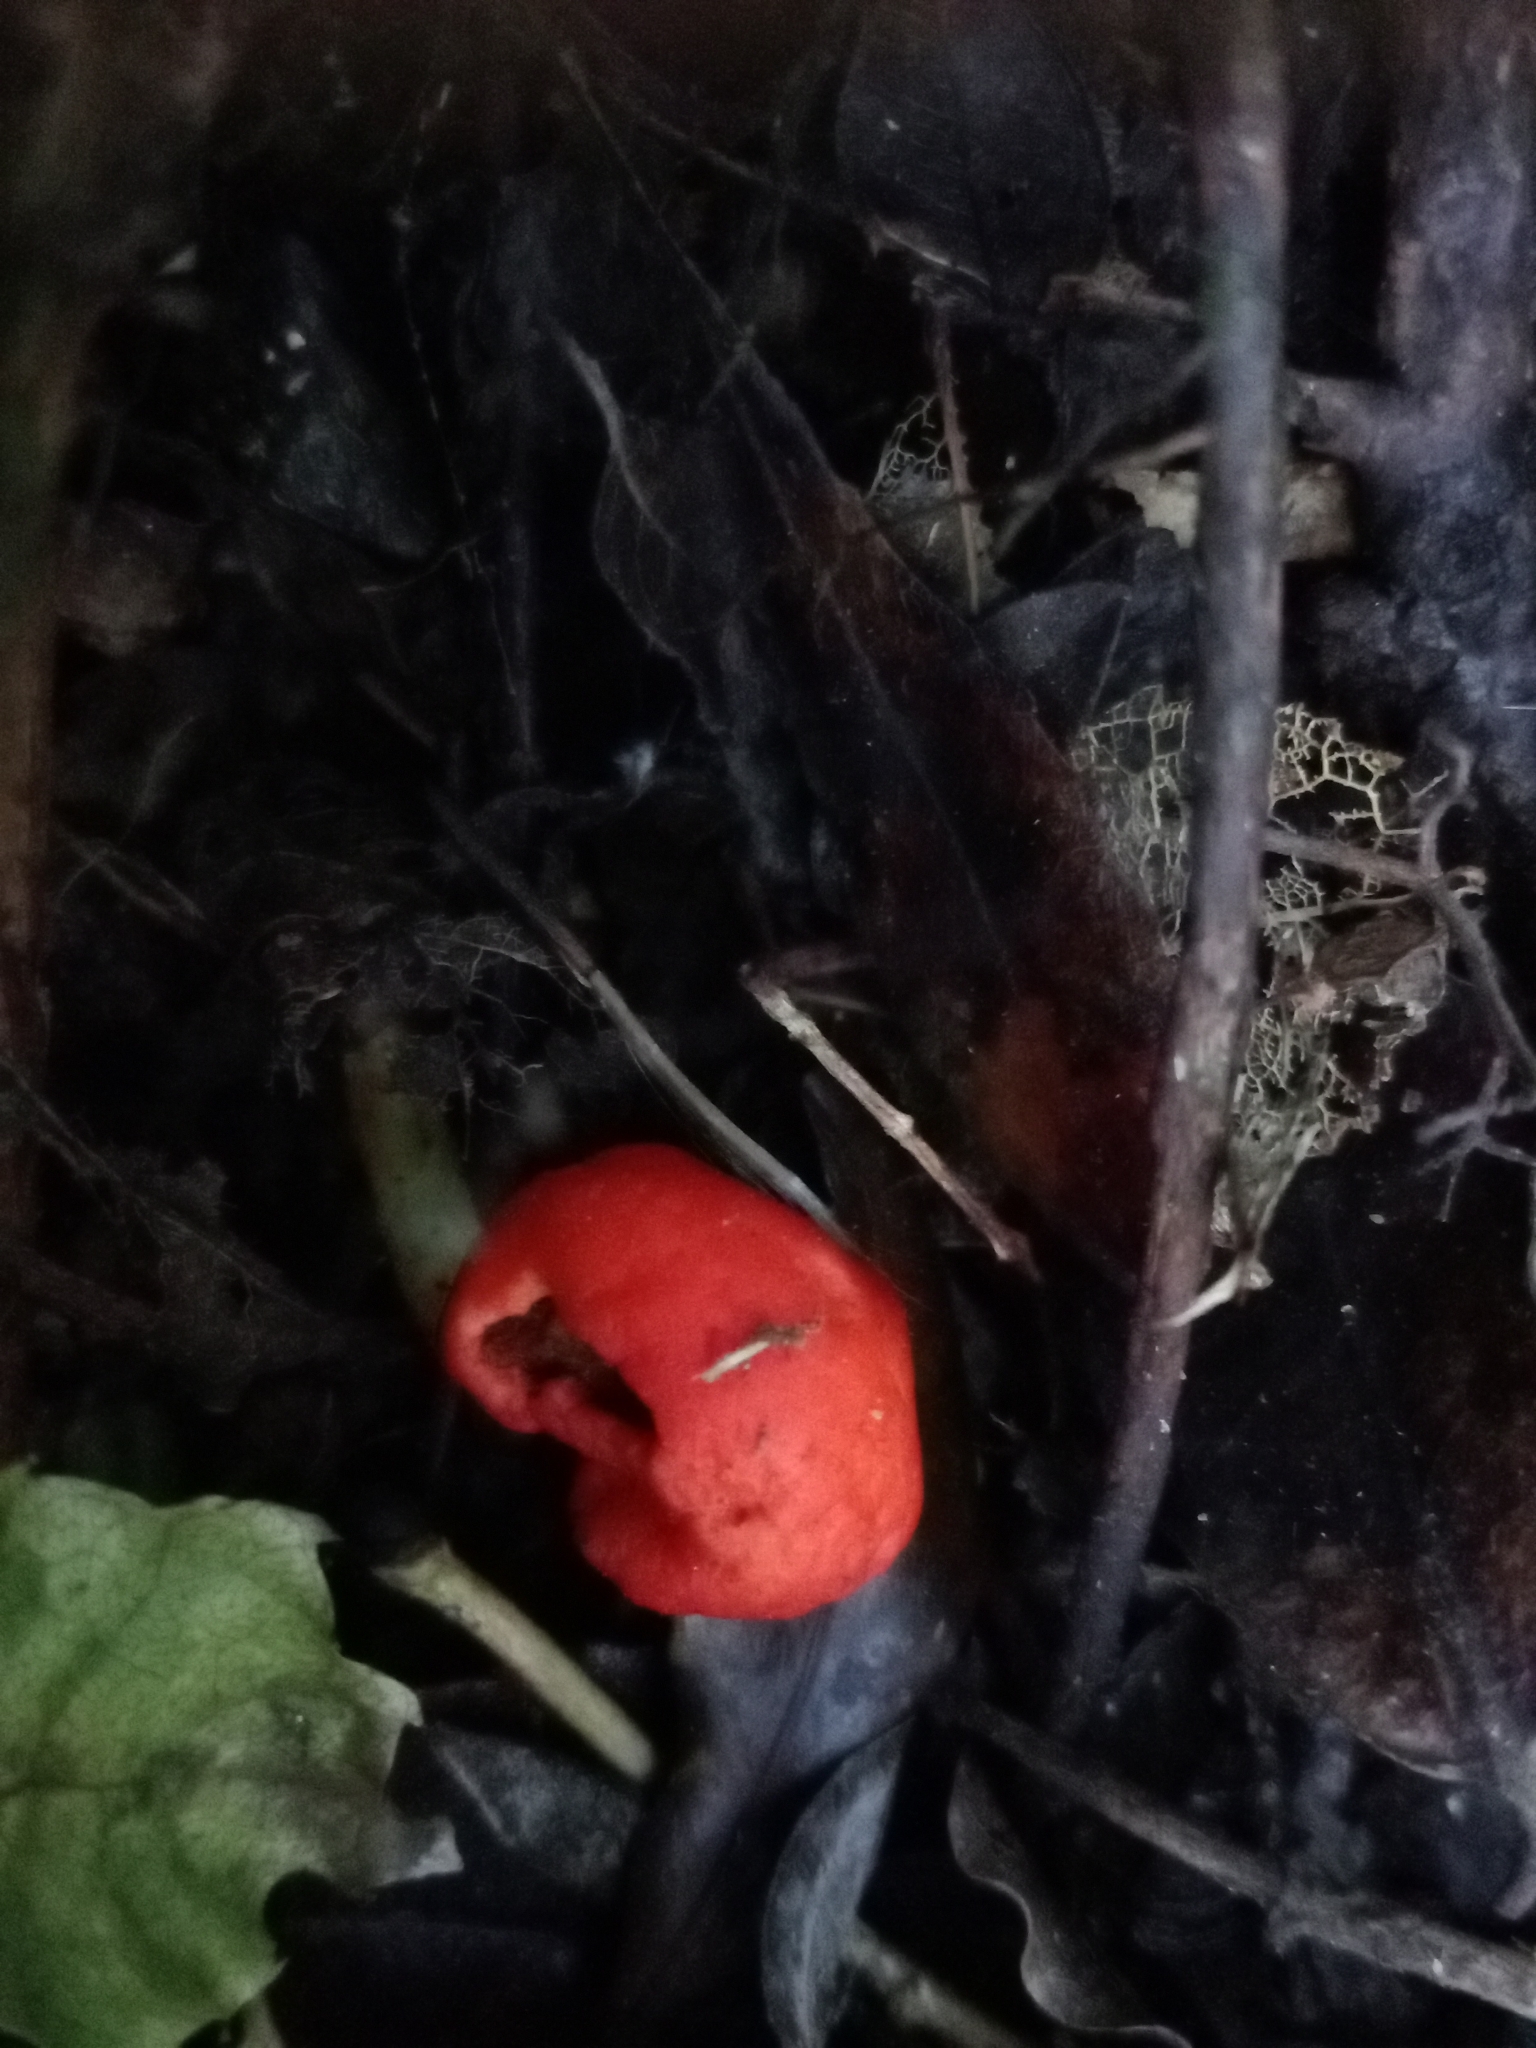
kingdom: Fungi
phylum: Basidiomycota
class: Agaricomycetes
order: Agaricales
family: Strophariaceae
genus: Leratiomyces
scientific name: Leratiomyces erythrocephalus
